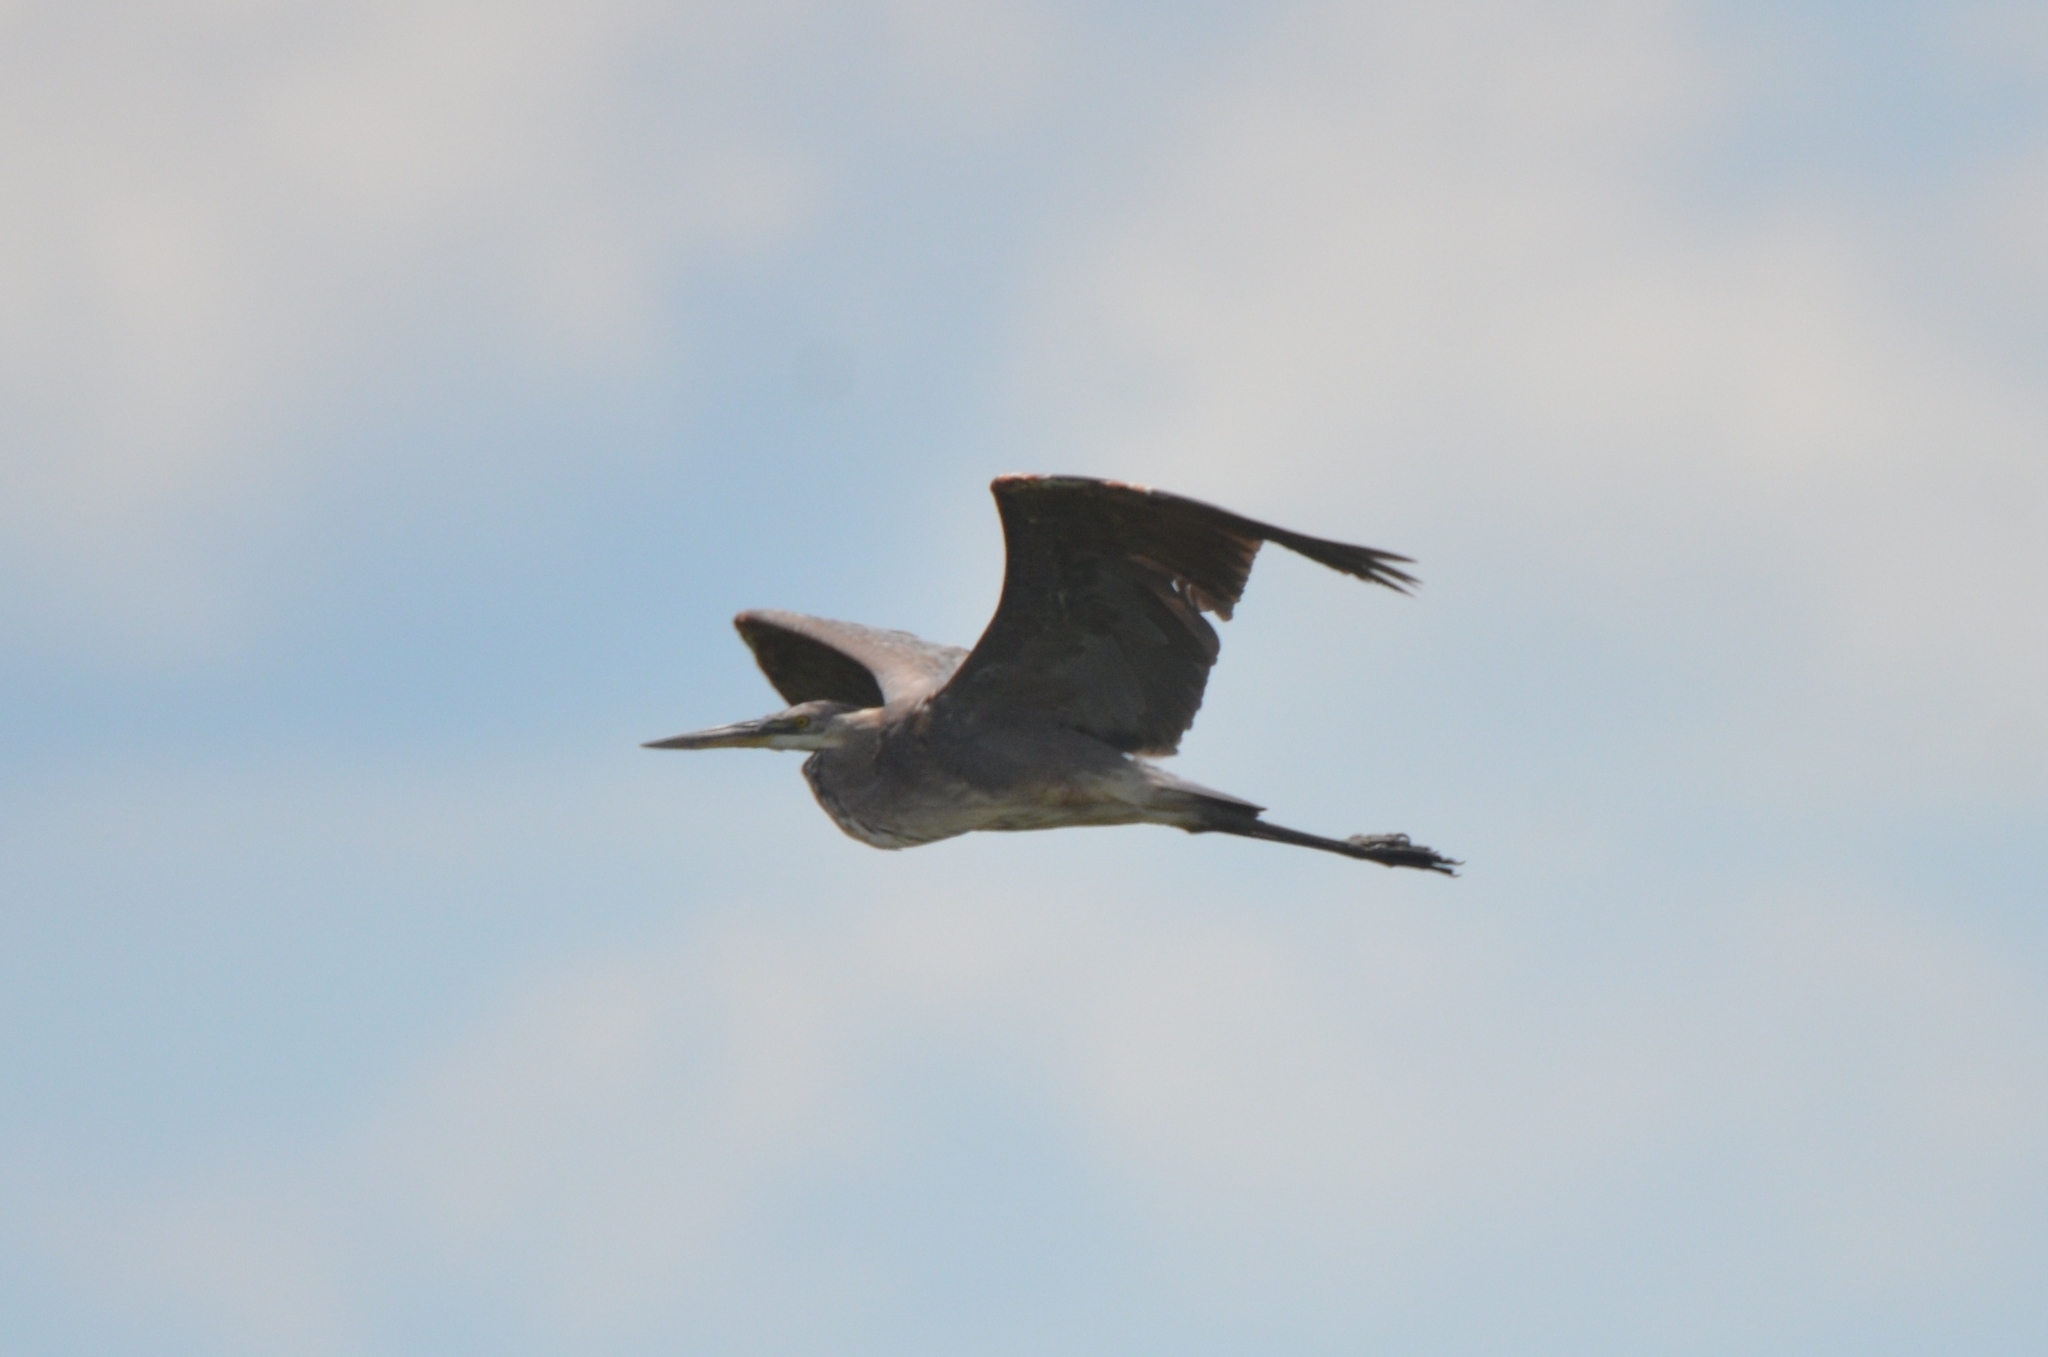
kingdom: Animalia
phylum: Chordata
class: Aves
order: Pelecaniformes
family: Ardeidae
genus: Ardea
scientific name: Ardea herodias
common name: Great blue heron
